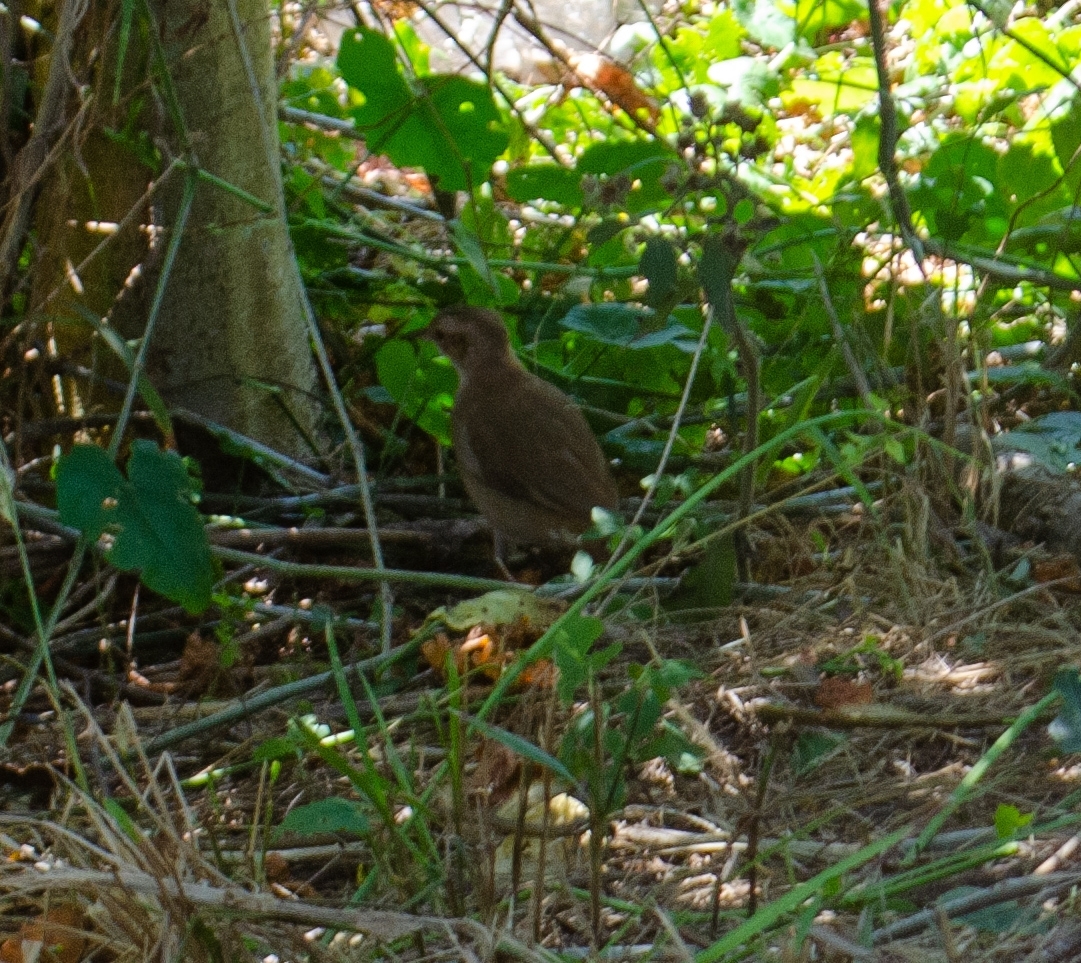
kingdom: Animalia
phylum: Chordata
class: Aves
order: Passeriformes
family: Furnariidae
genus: Furnarius
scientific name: Furnarius rufus
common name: Rufous hornero
